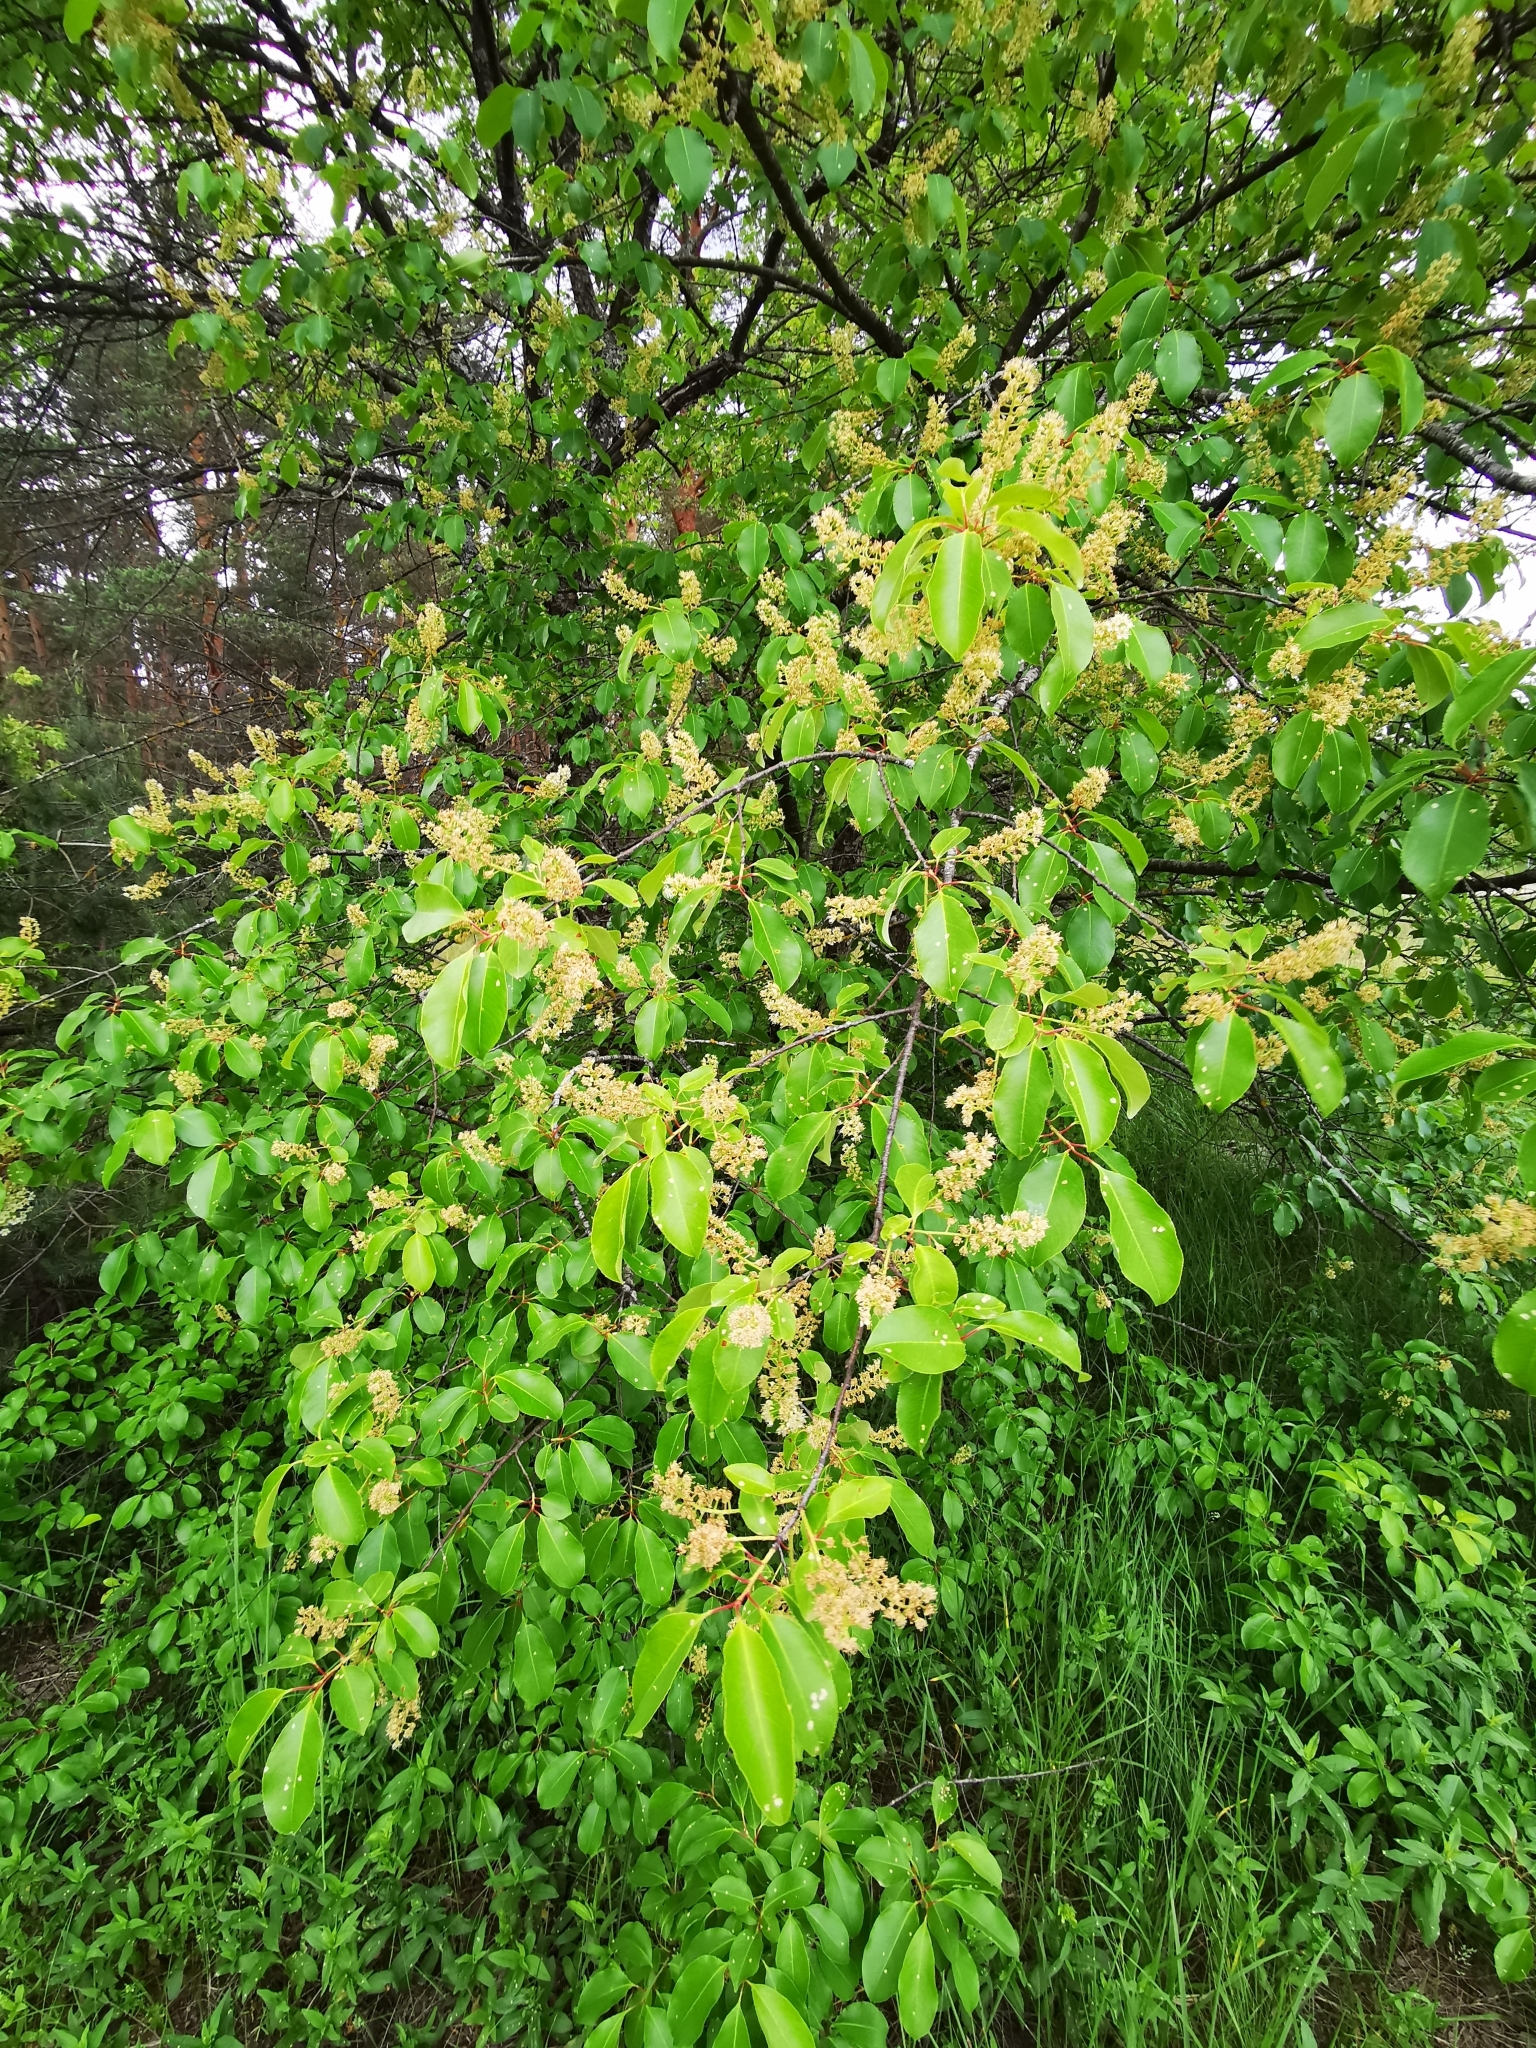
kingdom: Plantae
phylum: Tracheophyta
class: Magnoliopsida
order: Rosales
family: Rosaceae
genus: Prunus
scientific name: Prunus serotina
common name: Black cherry
